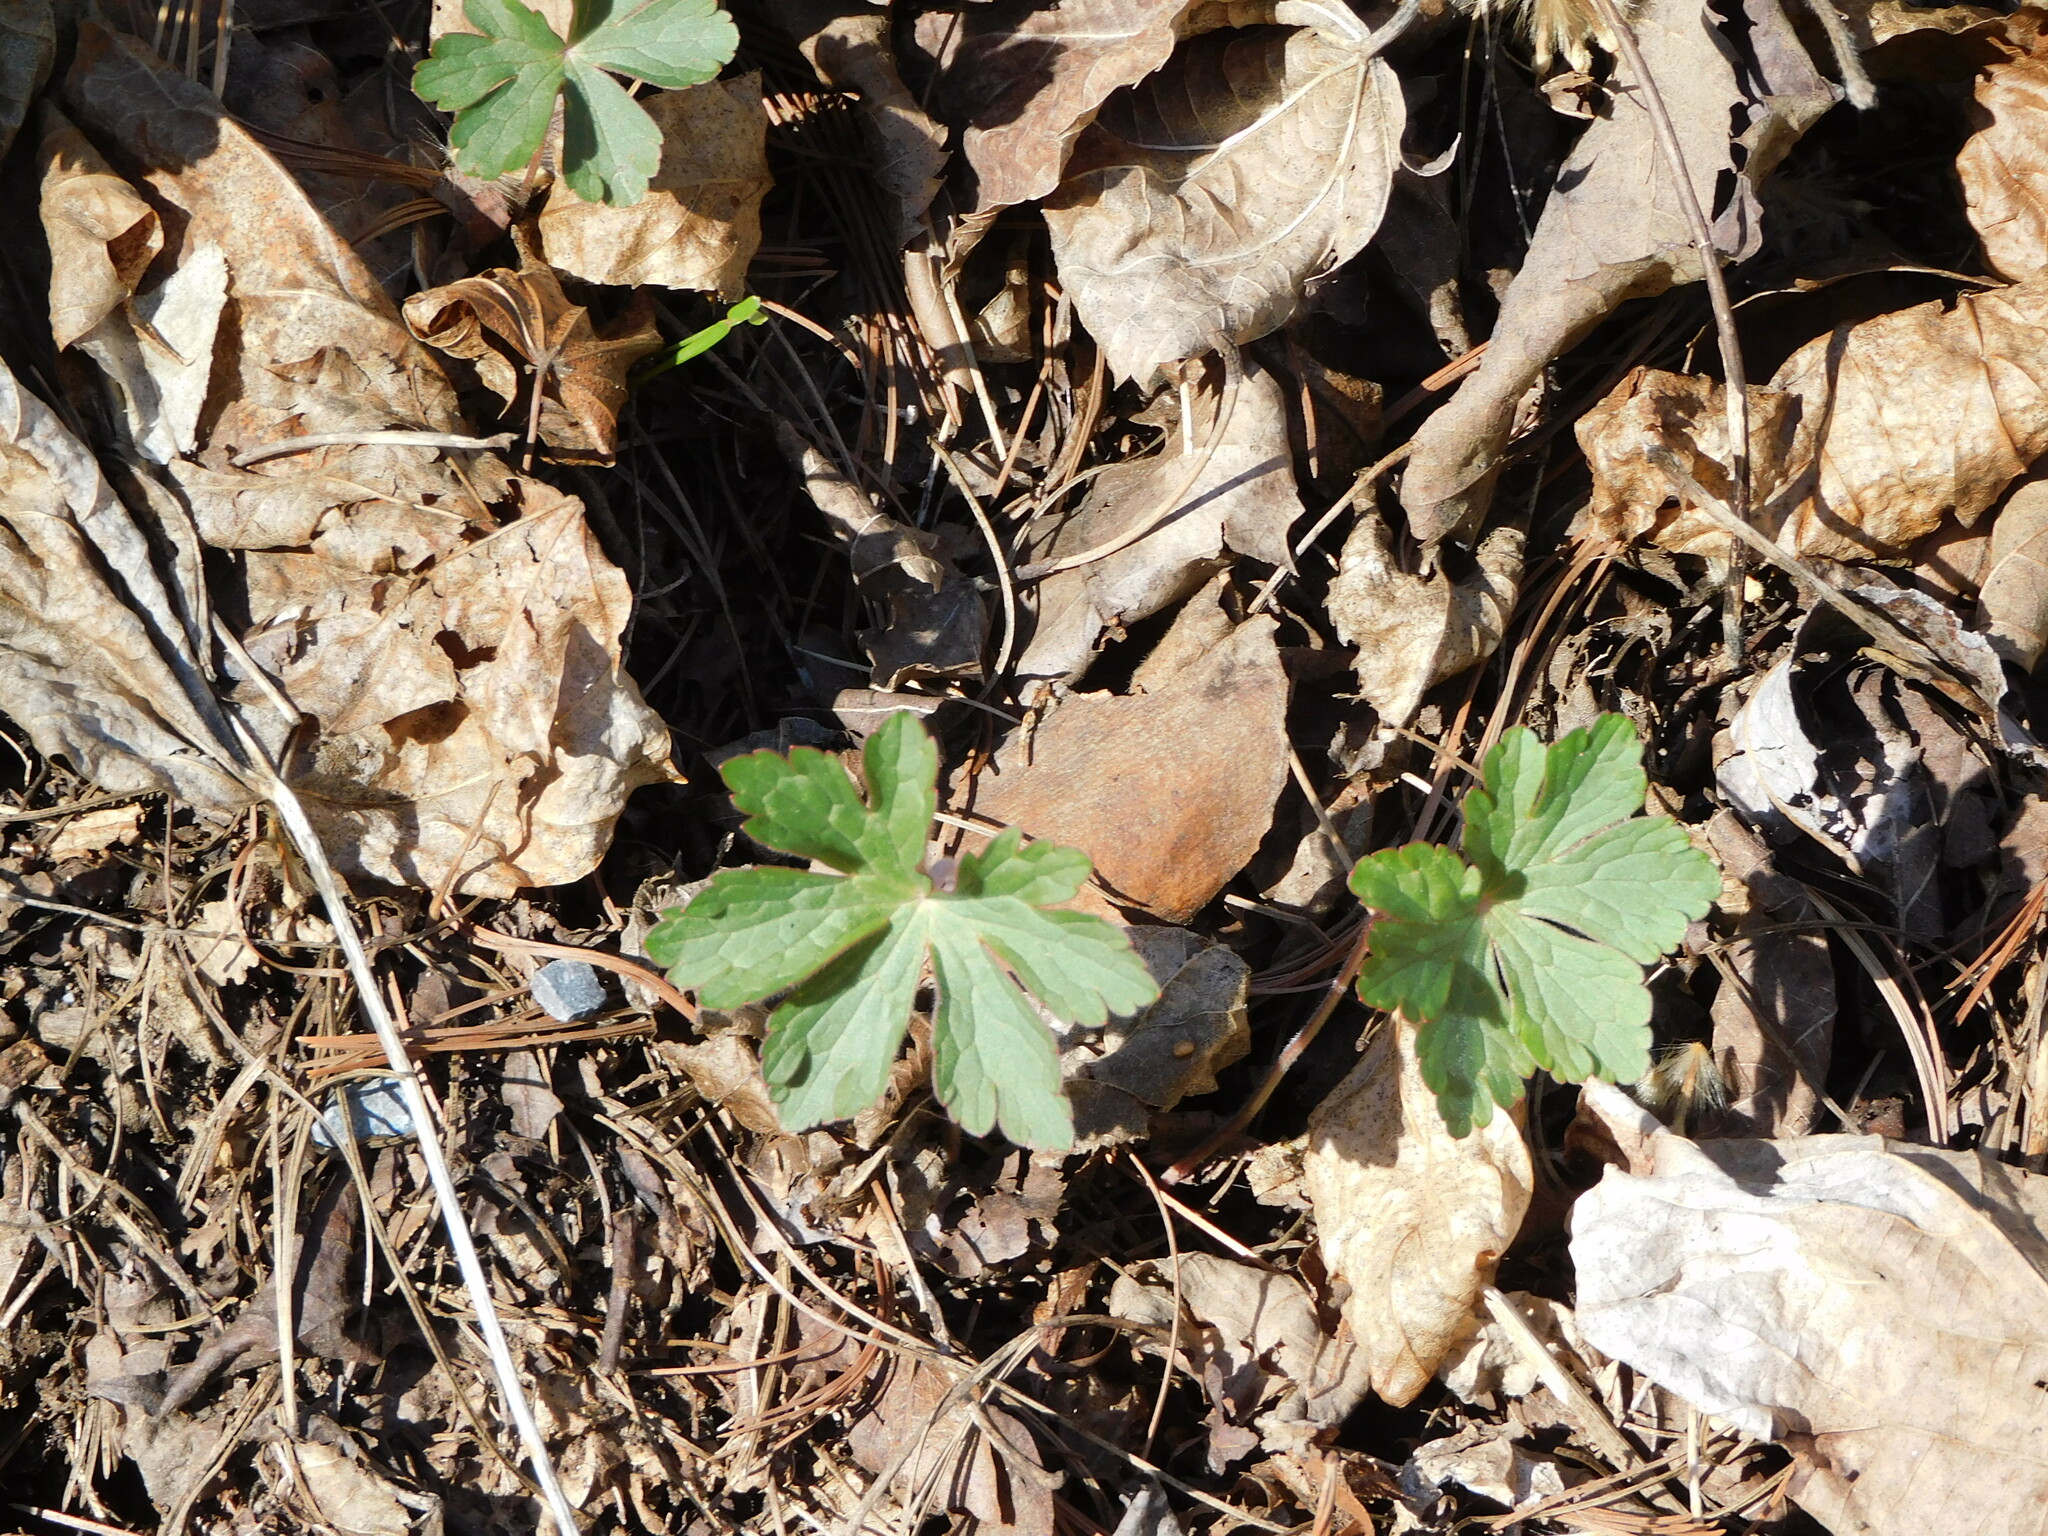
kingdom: Plantae
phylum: Tracheophyta
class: Magnoliopsida
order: Geraniales
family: Geraniaceae
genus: Geranium
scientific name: Geranium maculatum
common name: Spotted geranium
